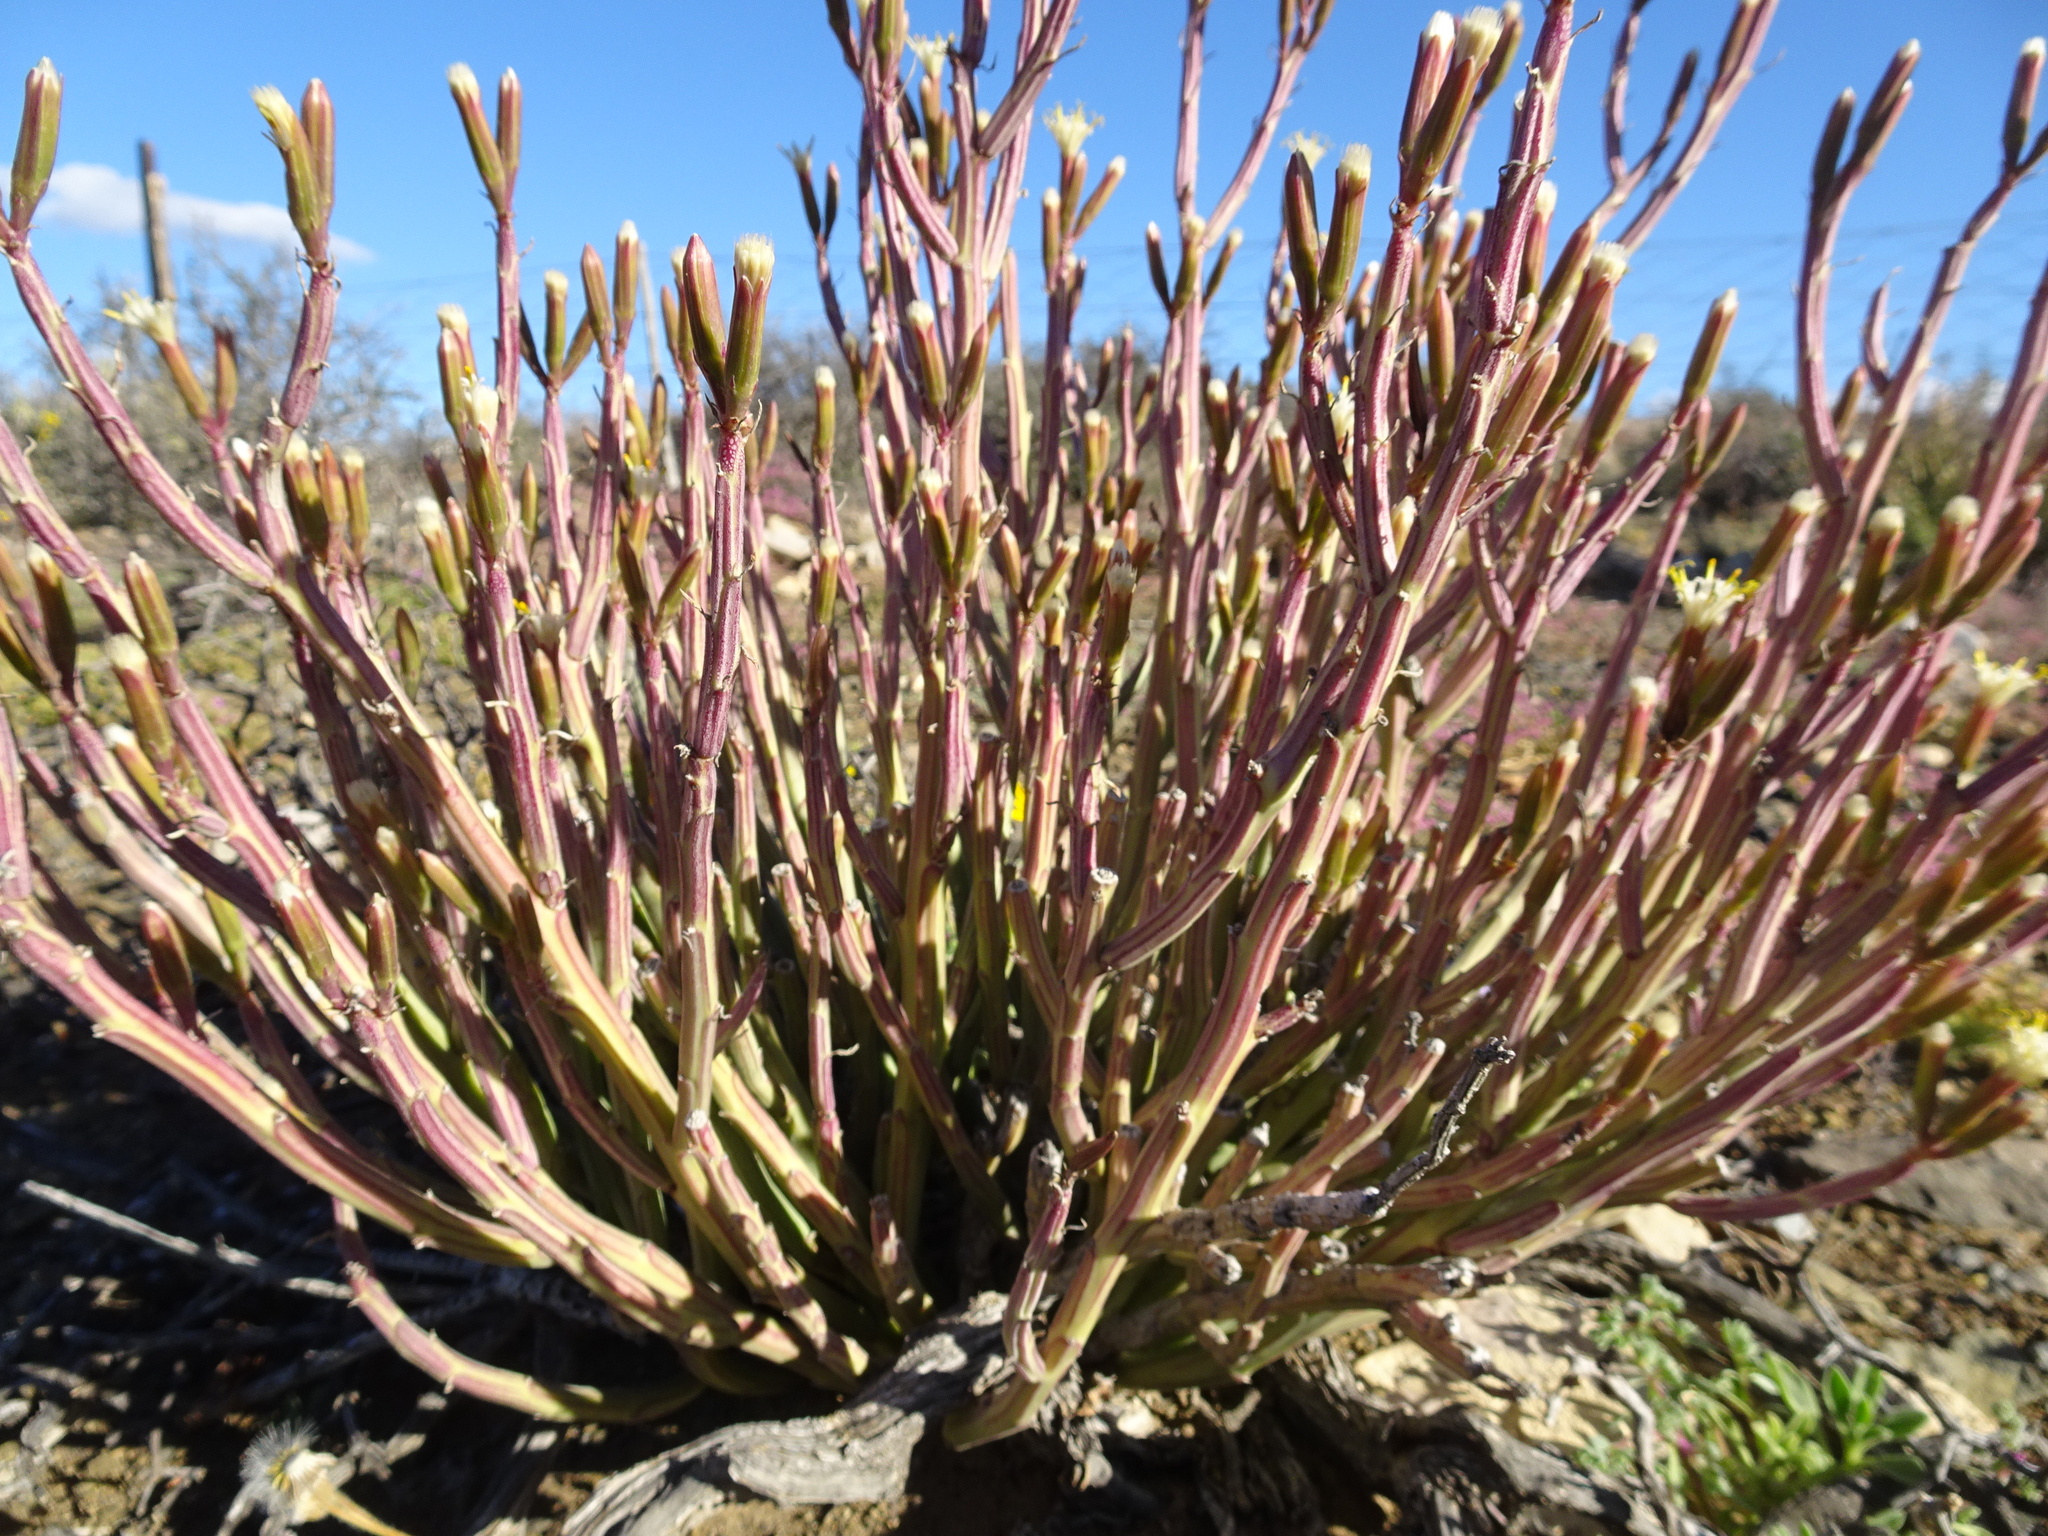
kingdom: Plantae
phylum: Tracheophyta
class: Magnoliopsida
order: Asterales
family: Asteraceae
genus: Curio
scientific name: Curio avasimontanus
